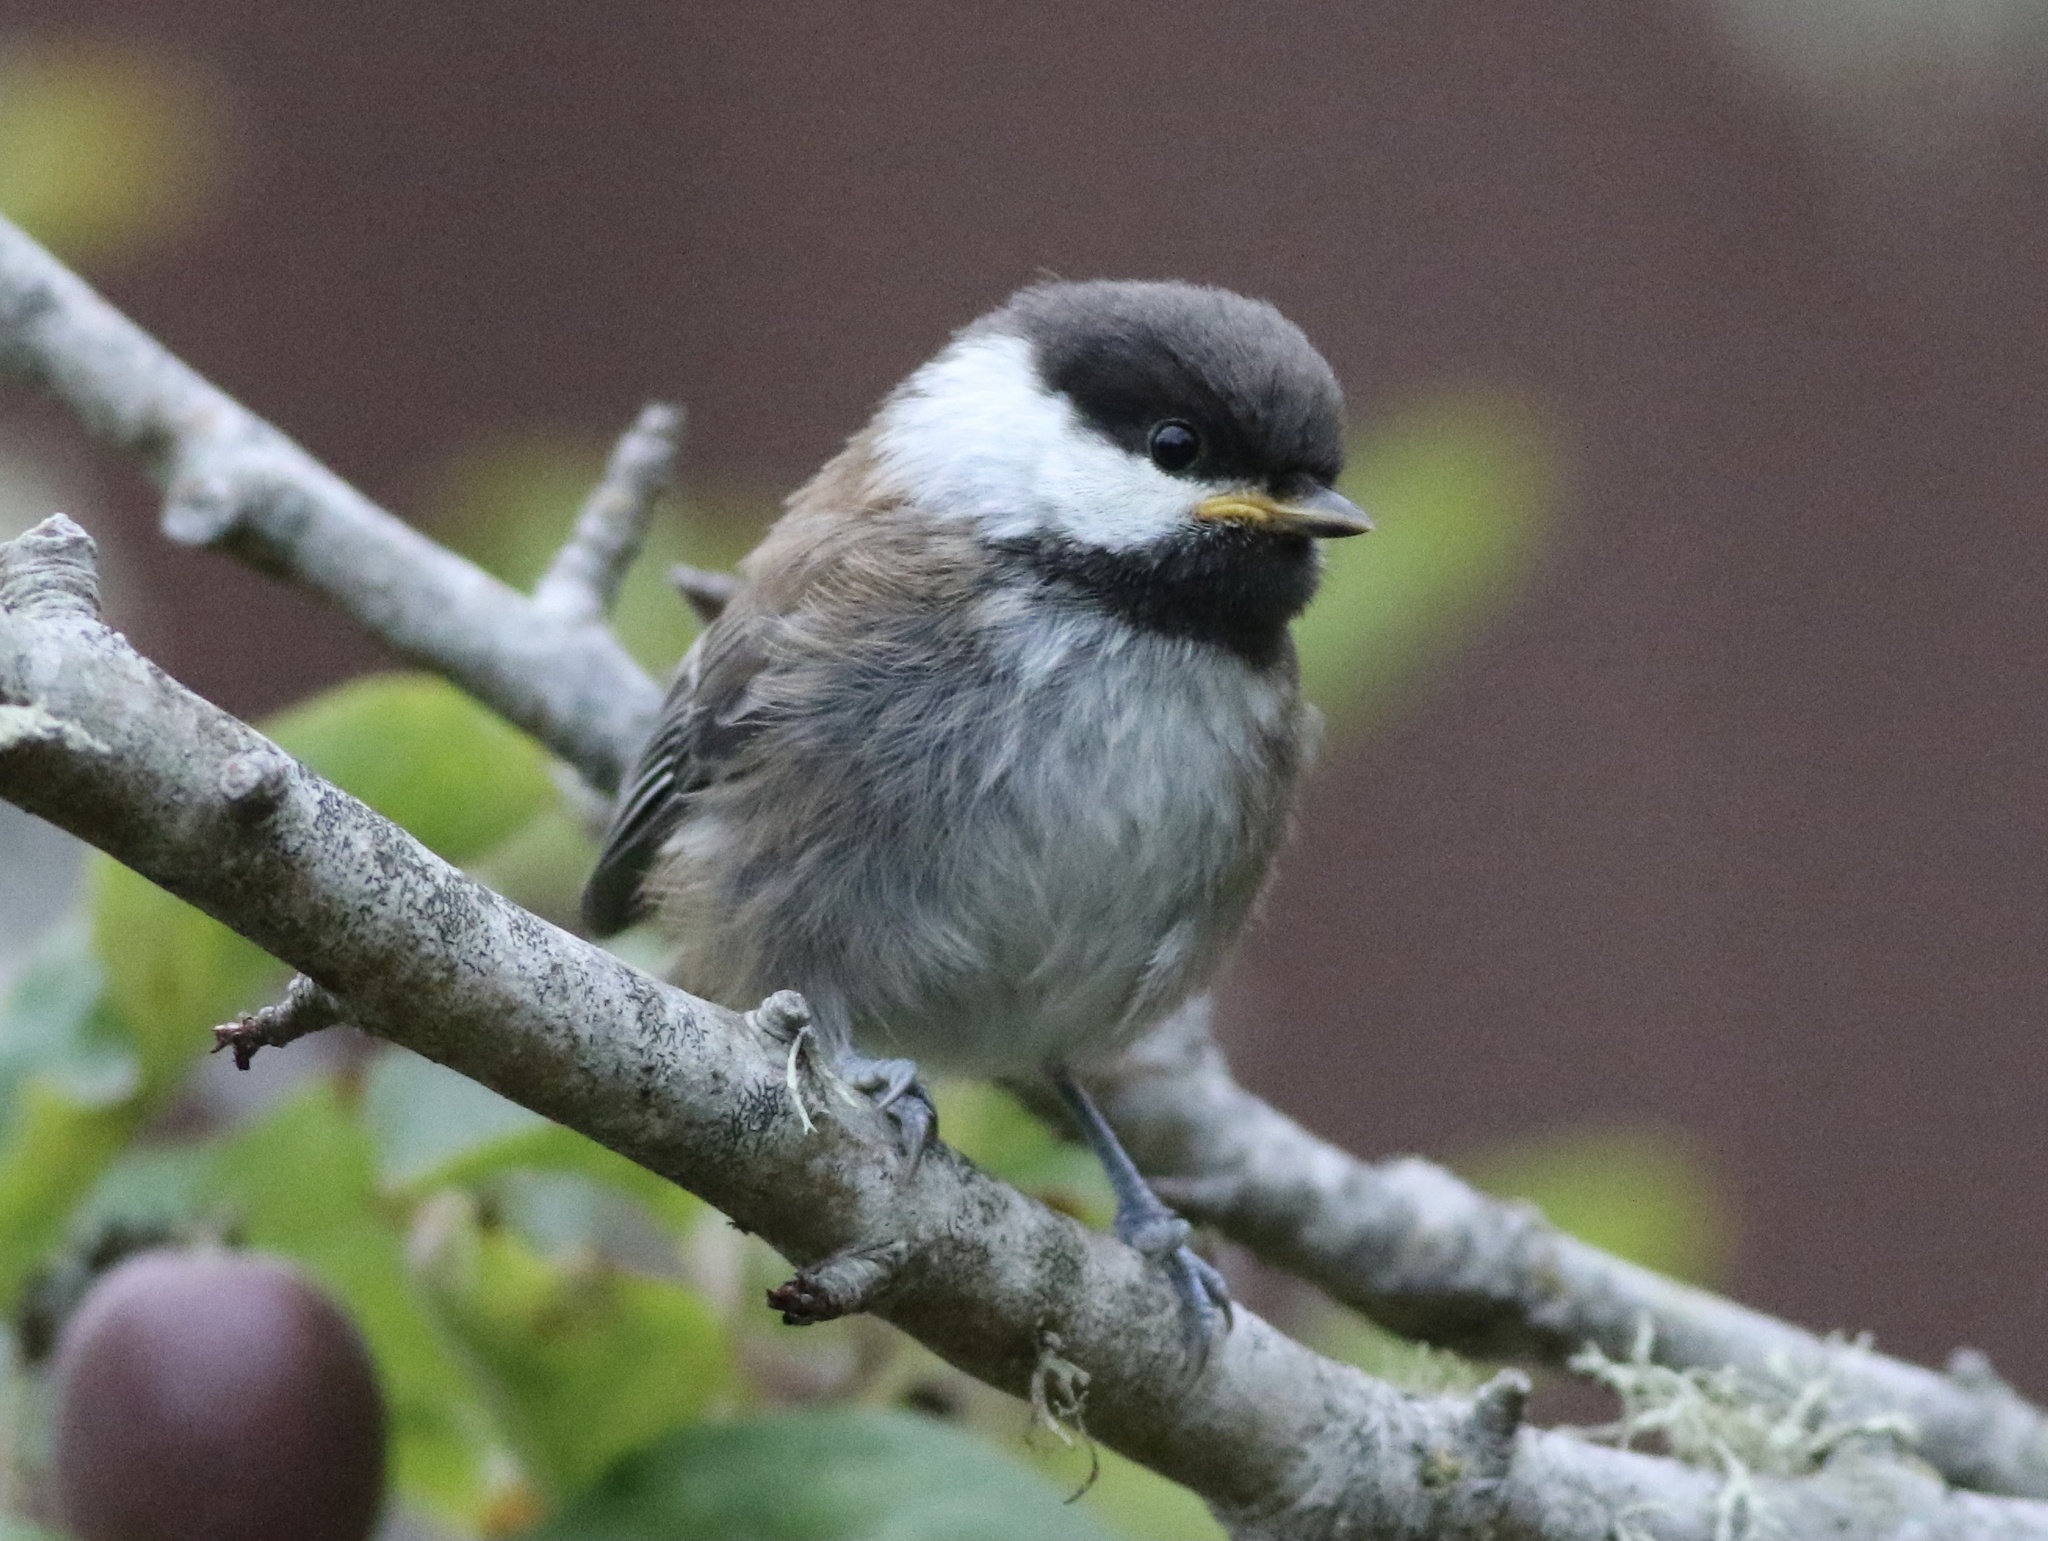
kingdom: Animalia
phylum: Chordata
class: Aves
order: Passeriformes
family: Paridae
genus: Poecile
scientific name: Poecile rufescens
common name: Chestnut-backed chickadee
